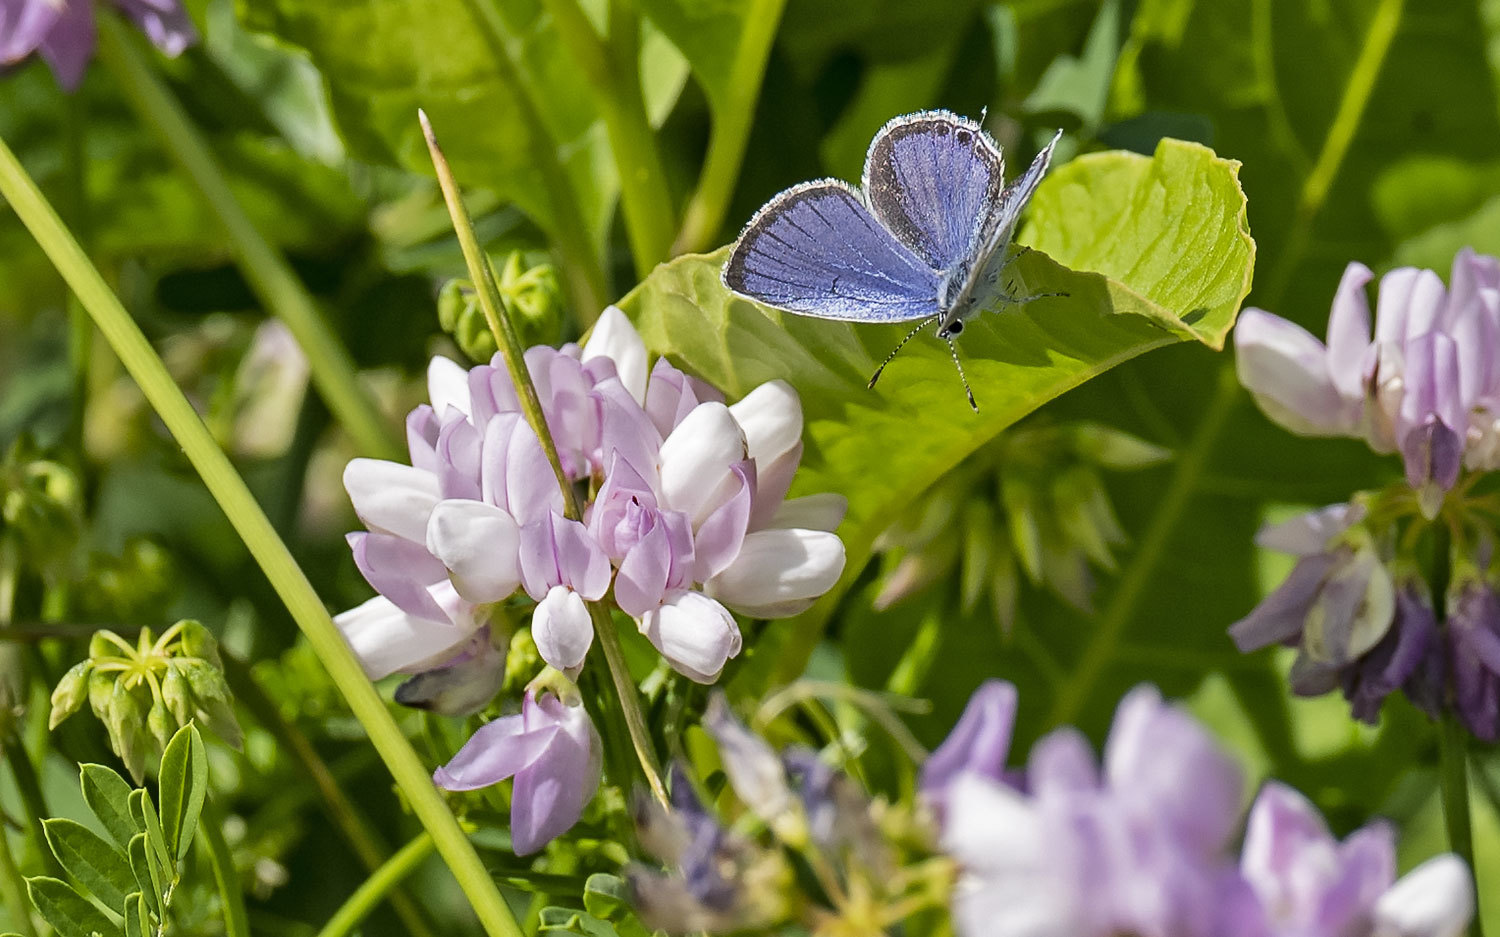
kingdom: Animalia
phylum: Arthropoda
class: Insecta
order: Lepidoptera
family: Lycaenidae
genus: Elkalyce
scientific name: Elkalyce comyntas
